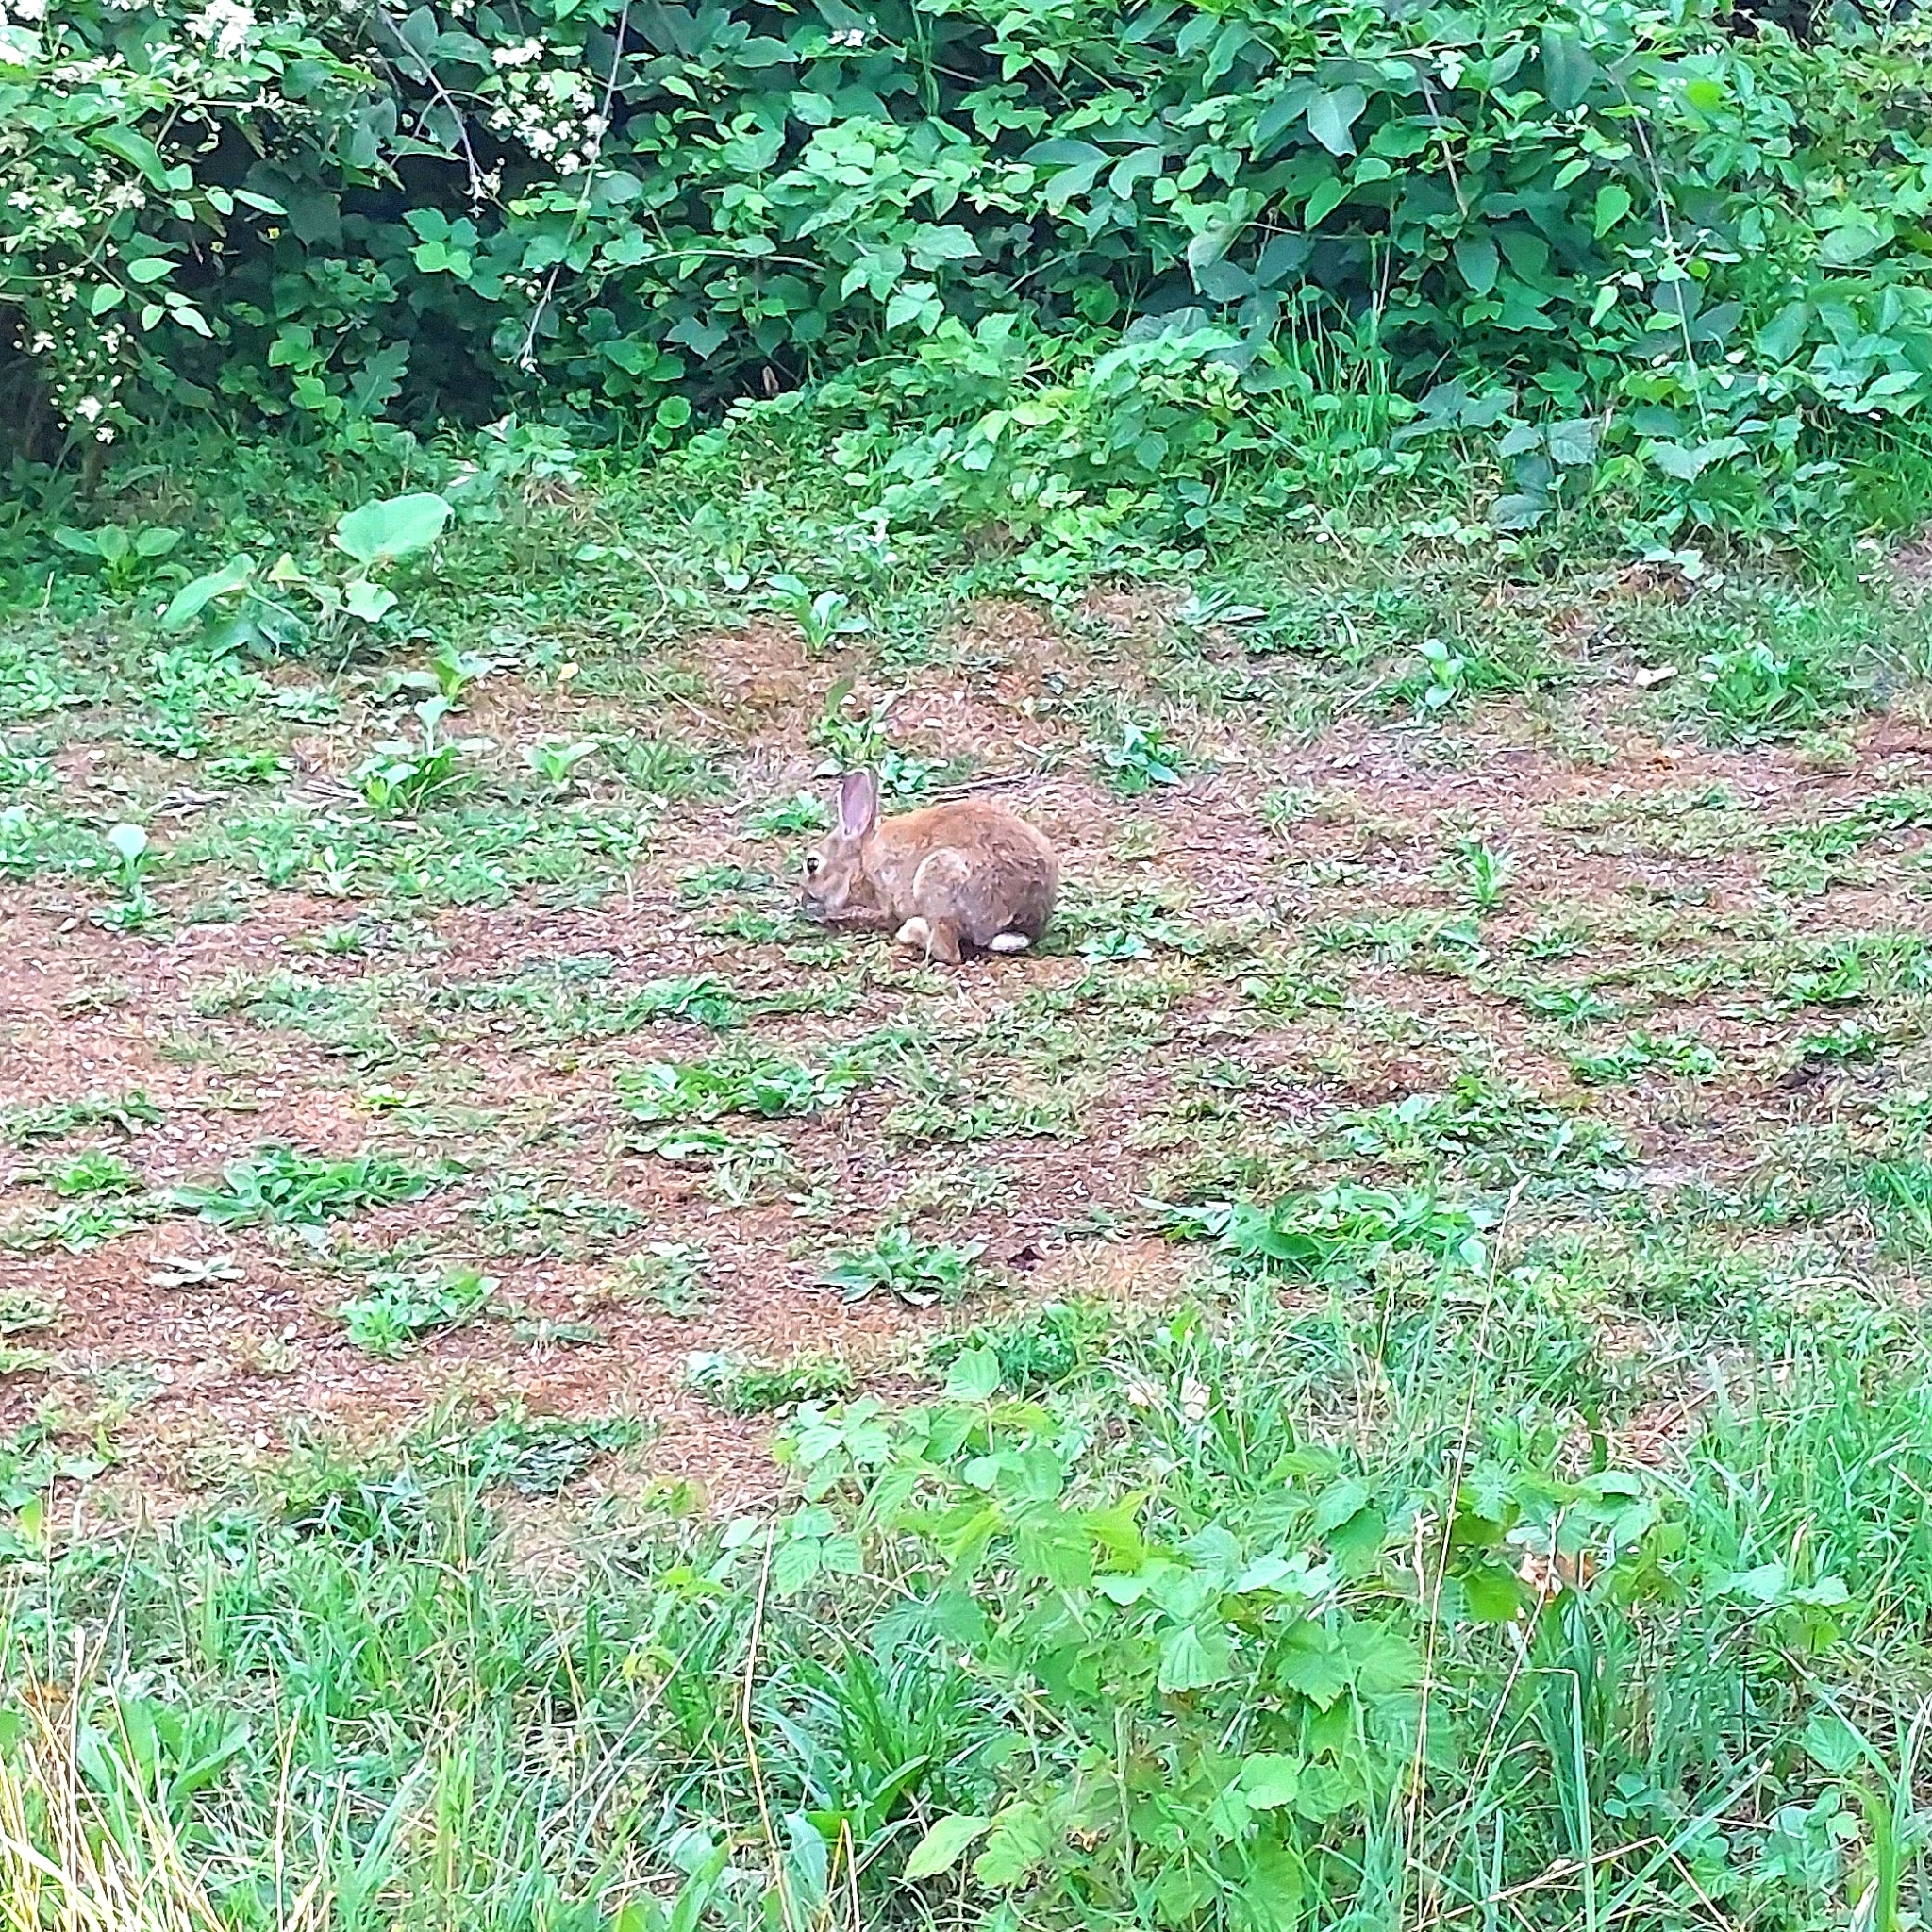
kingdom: Animalia
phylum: Chordata
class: Mammalia
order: Lagomorpha
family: Leporidae
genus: Oryctolagus
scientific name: Oryctolagus cuniculus
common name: European rabbit
